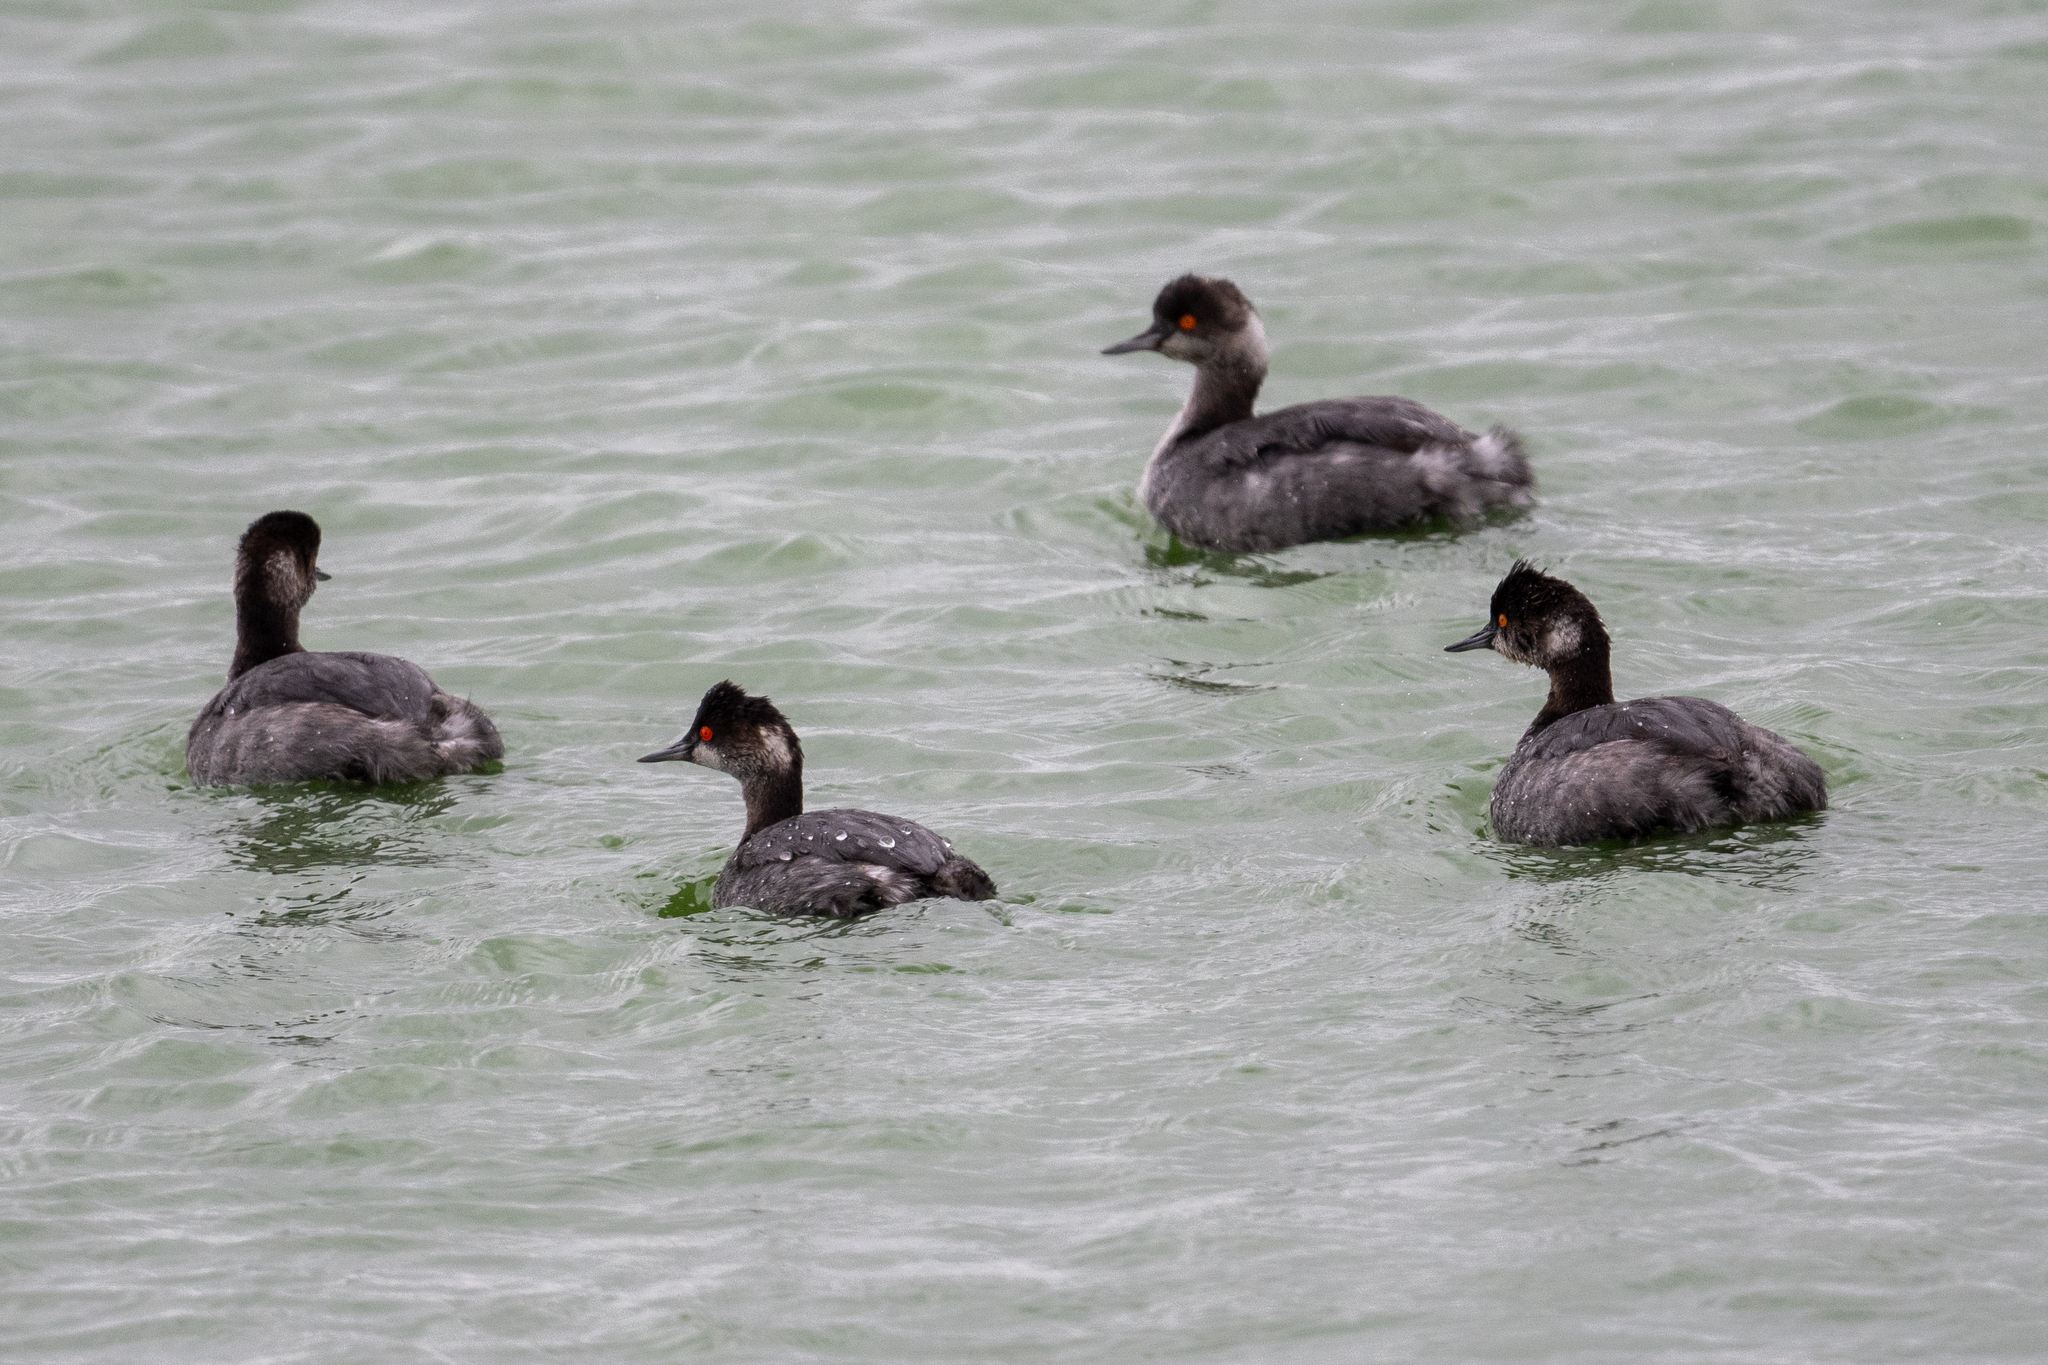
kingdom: Animalia
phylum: Chordata
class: Aves
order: Podicipediformes
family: Podicipedidae
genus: Podiceps
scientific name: Podiceps nigricollis
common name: Black-necked grebe
